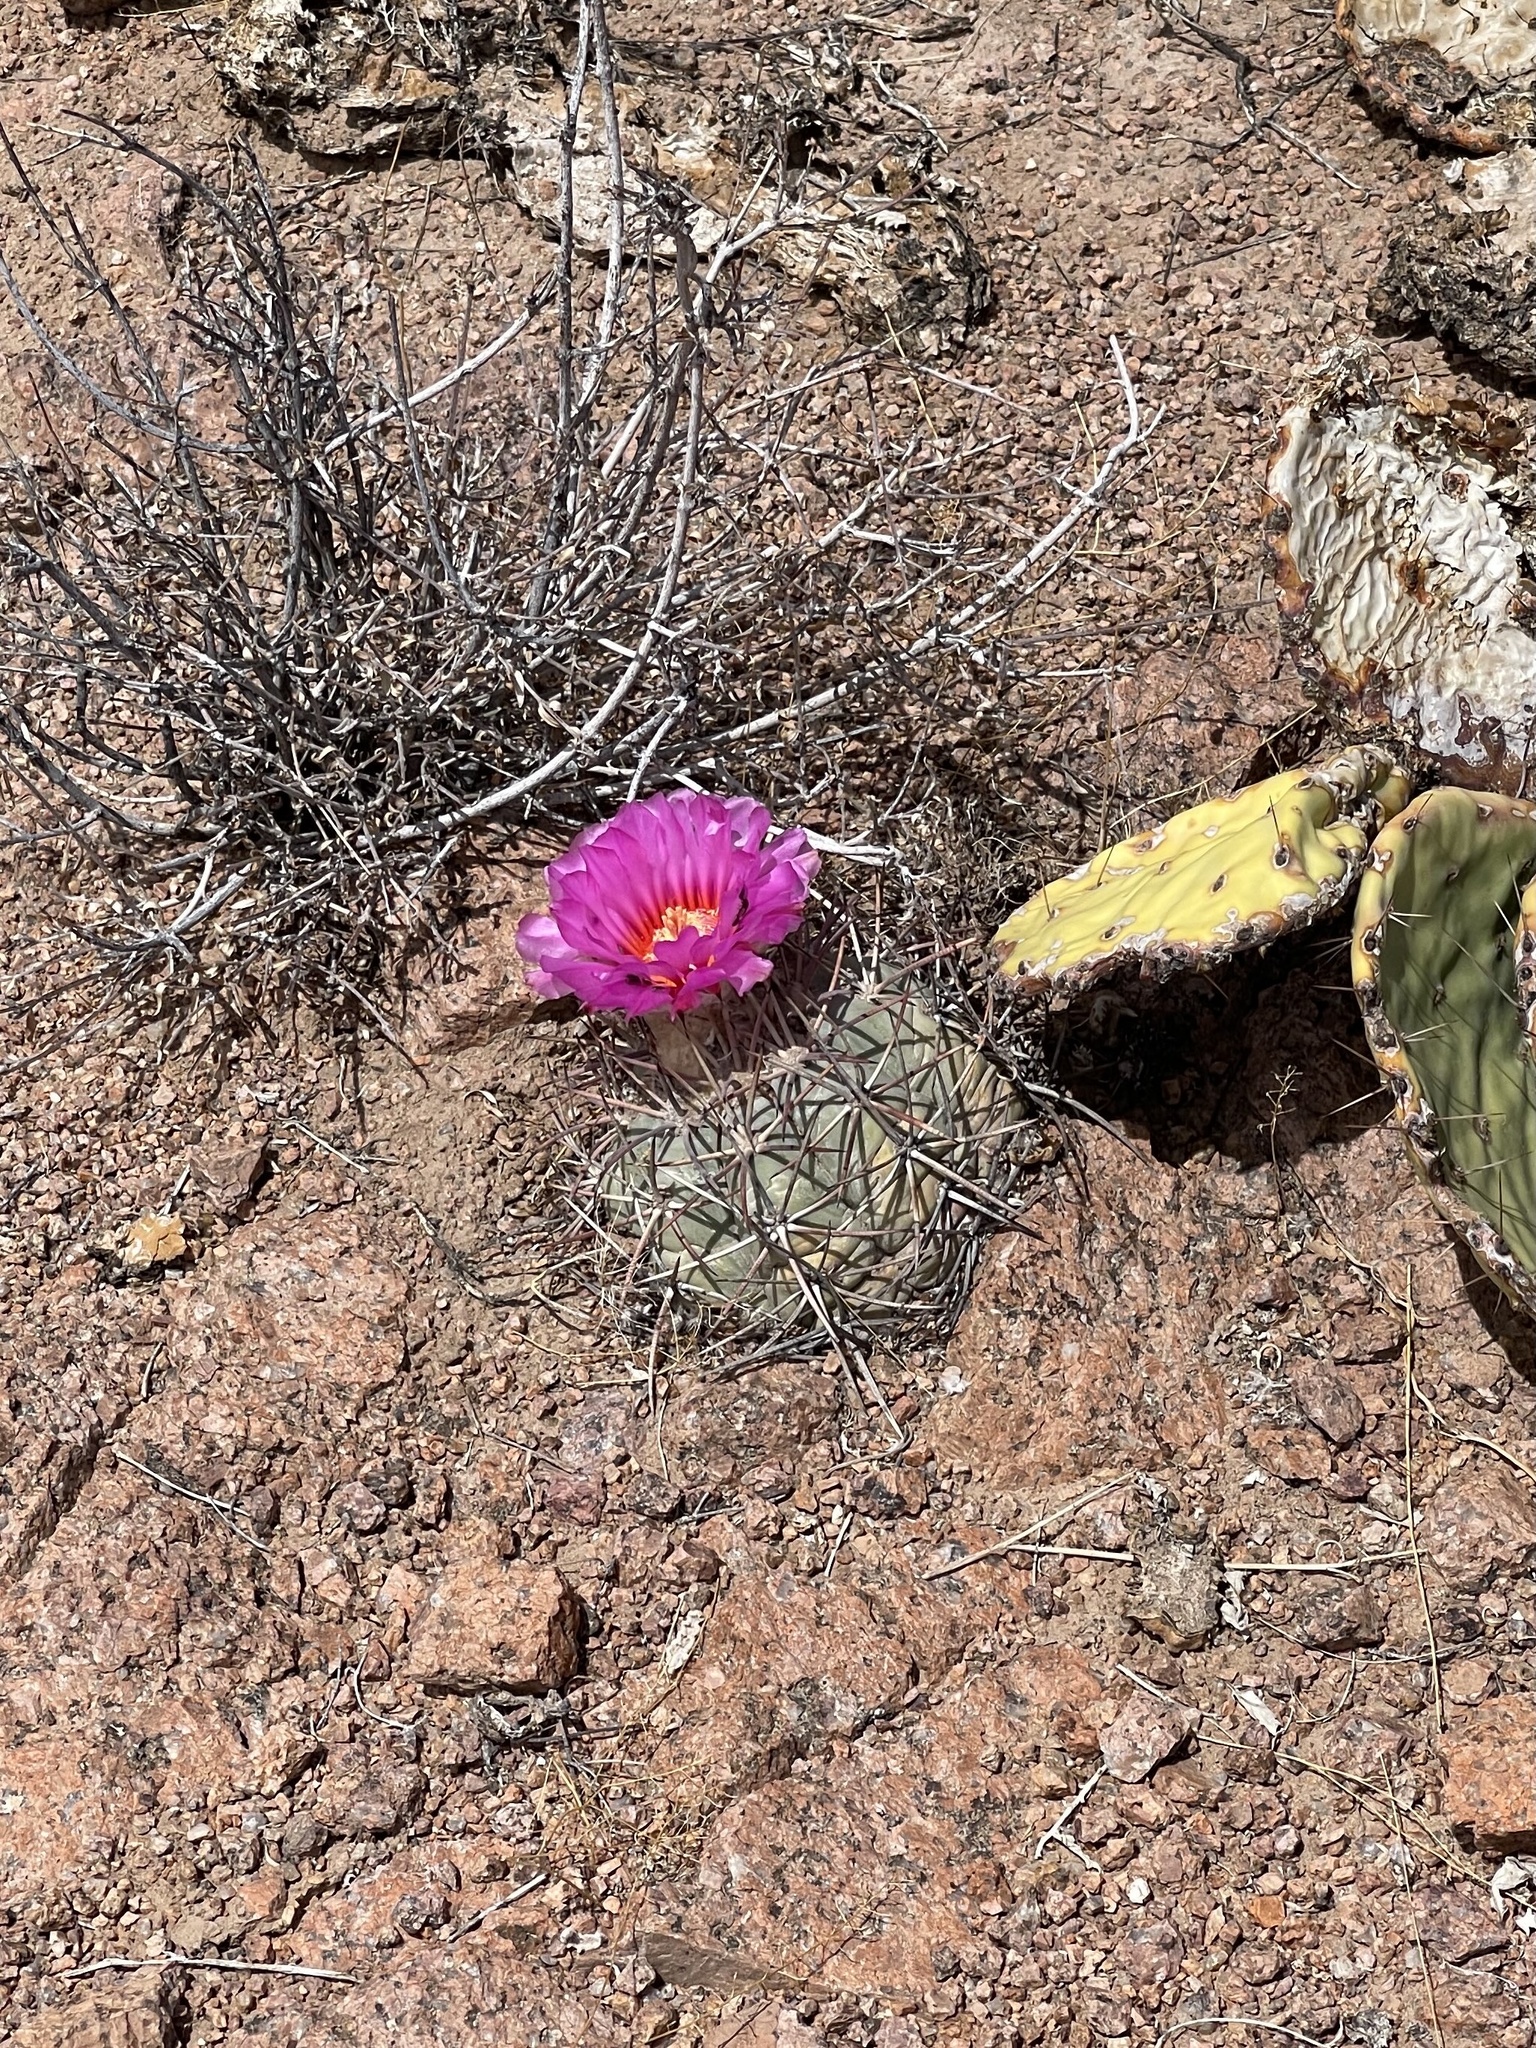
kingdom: Plantae
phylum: Tracheophyta
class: Magnoliopsida
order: Caryophyllales
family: Cactaceae
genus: Echinocactus
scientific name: Echinocactus horizonthalonius
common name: Devilshead
